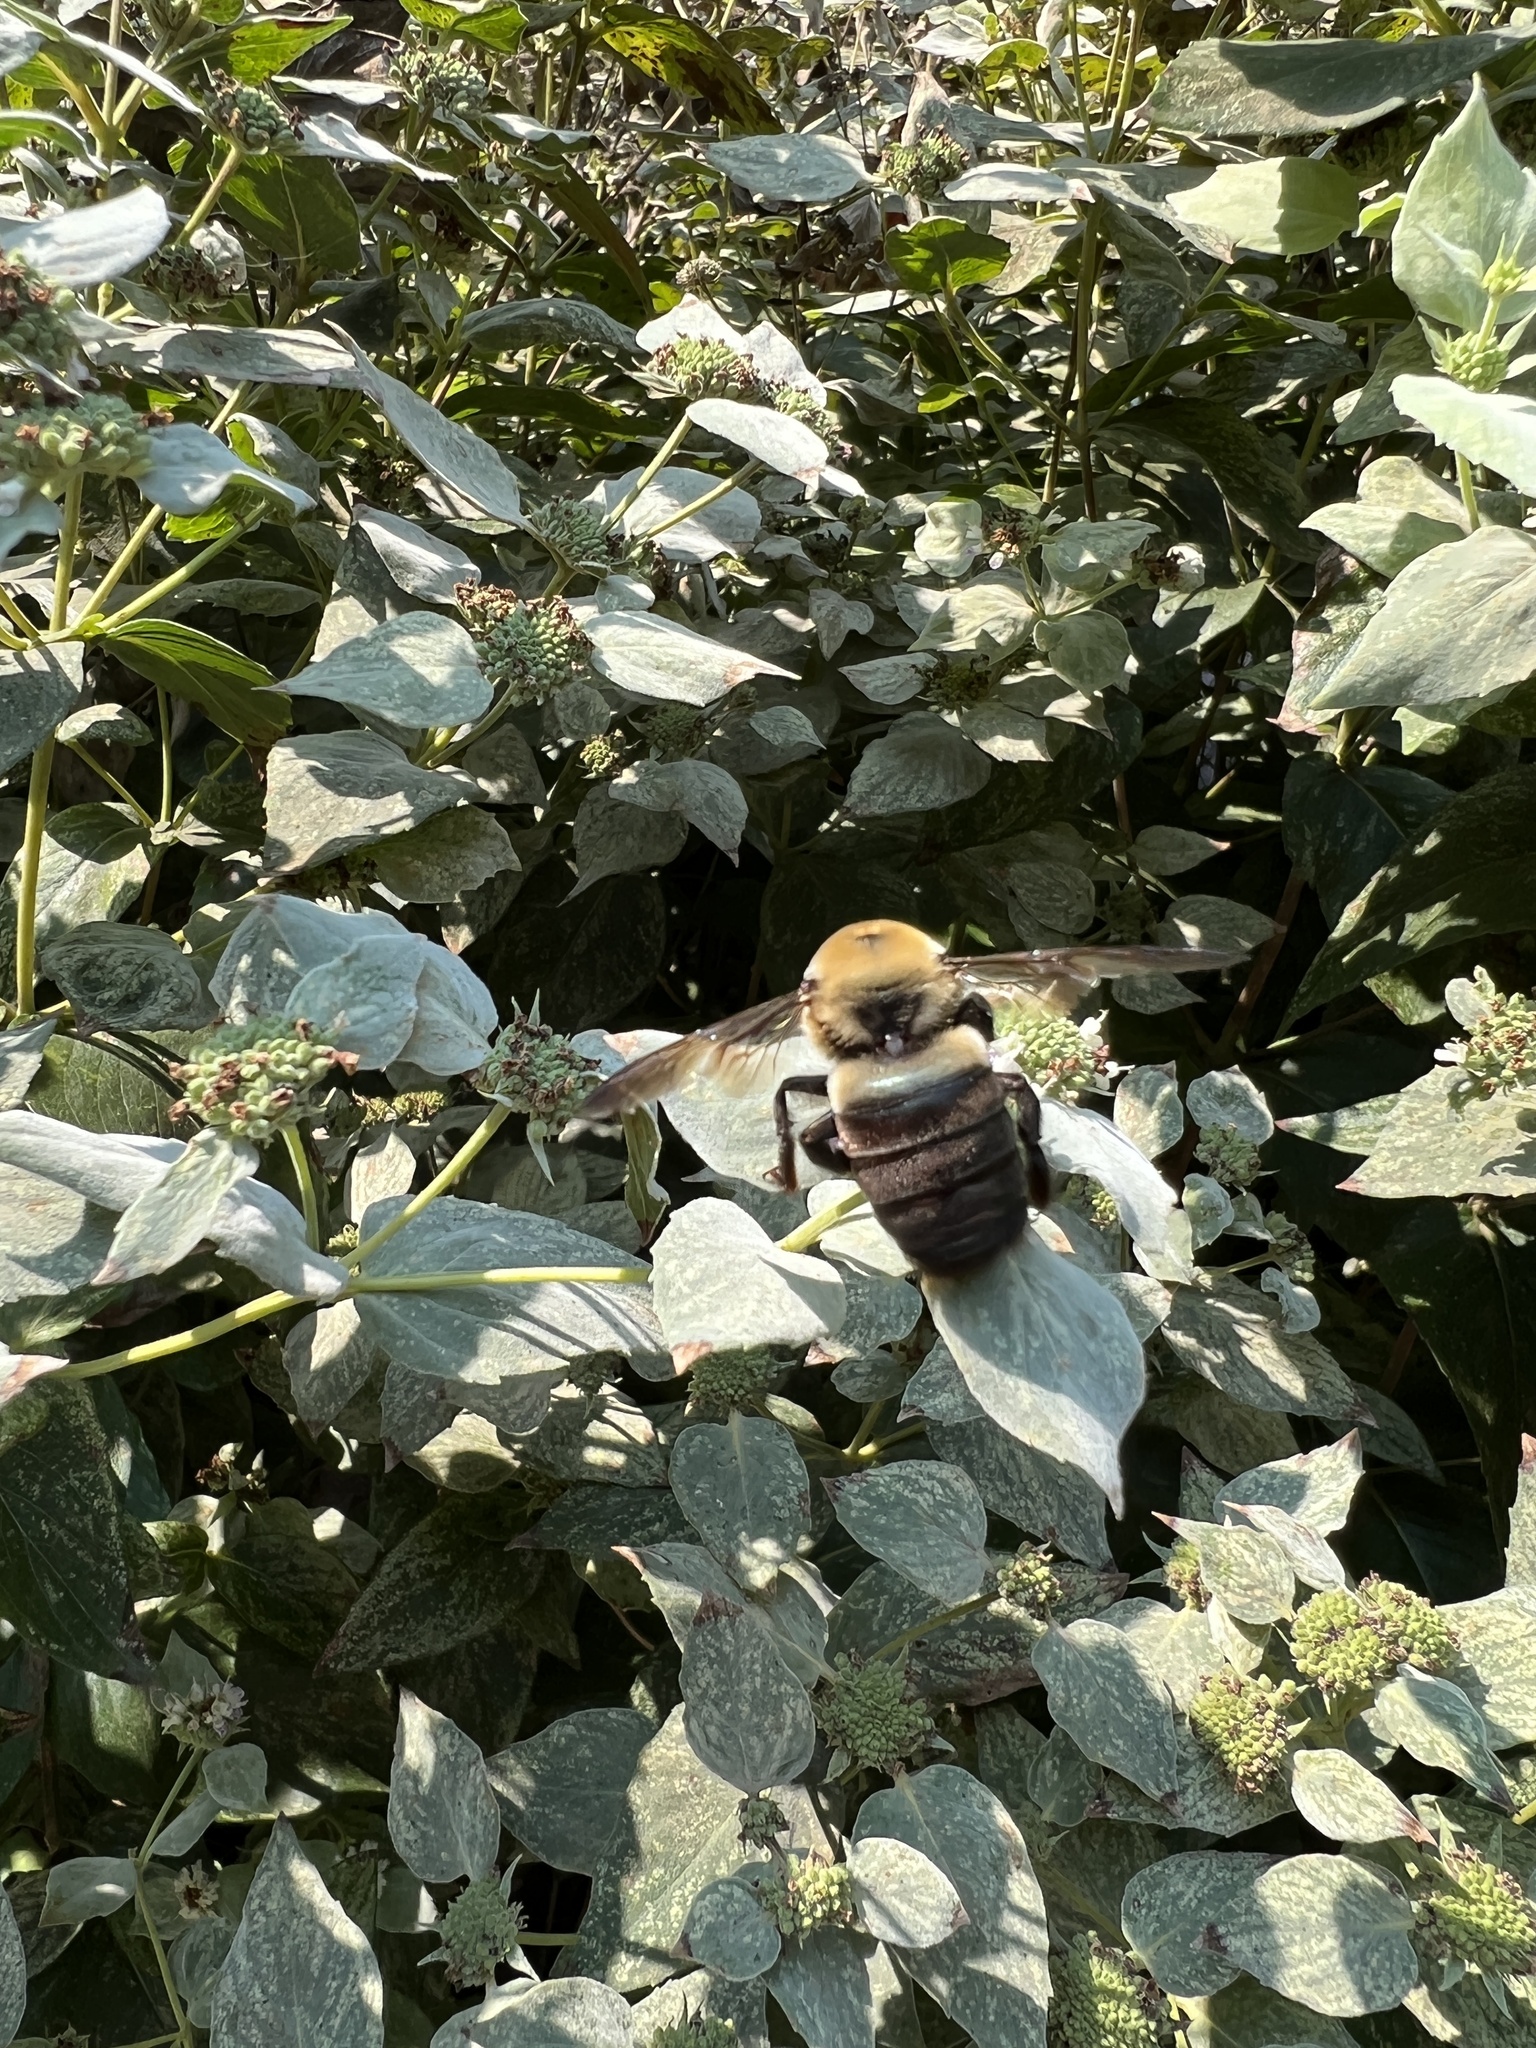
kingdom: Animalia
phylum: Arthropoda
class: Insecta
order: Hymenoptera
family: Apidae
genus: Xylocopa
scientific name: Xylocopa virginica
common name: Carpenter bee
